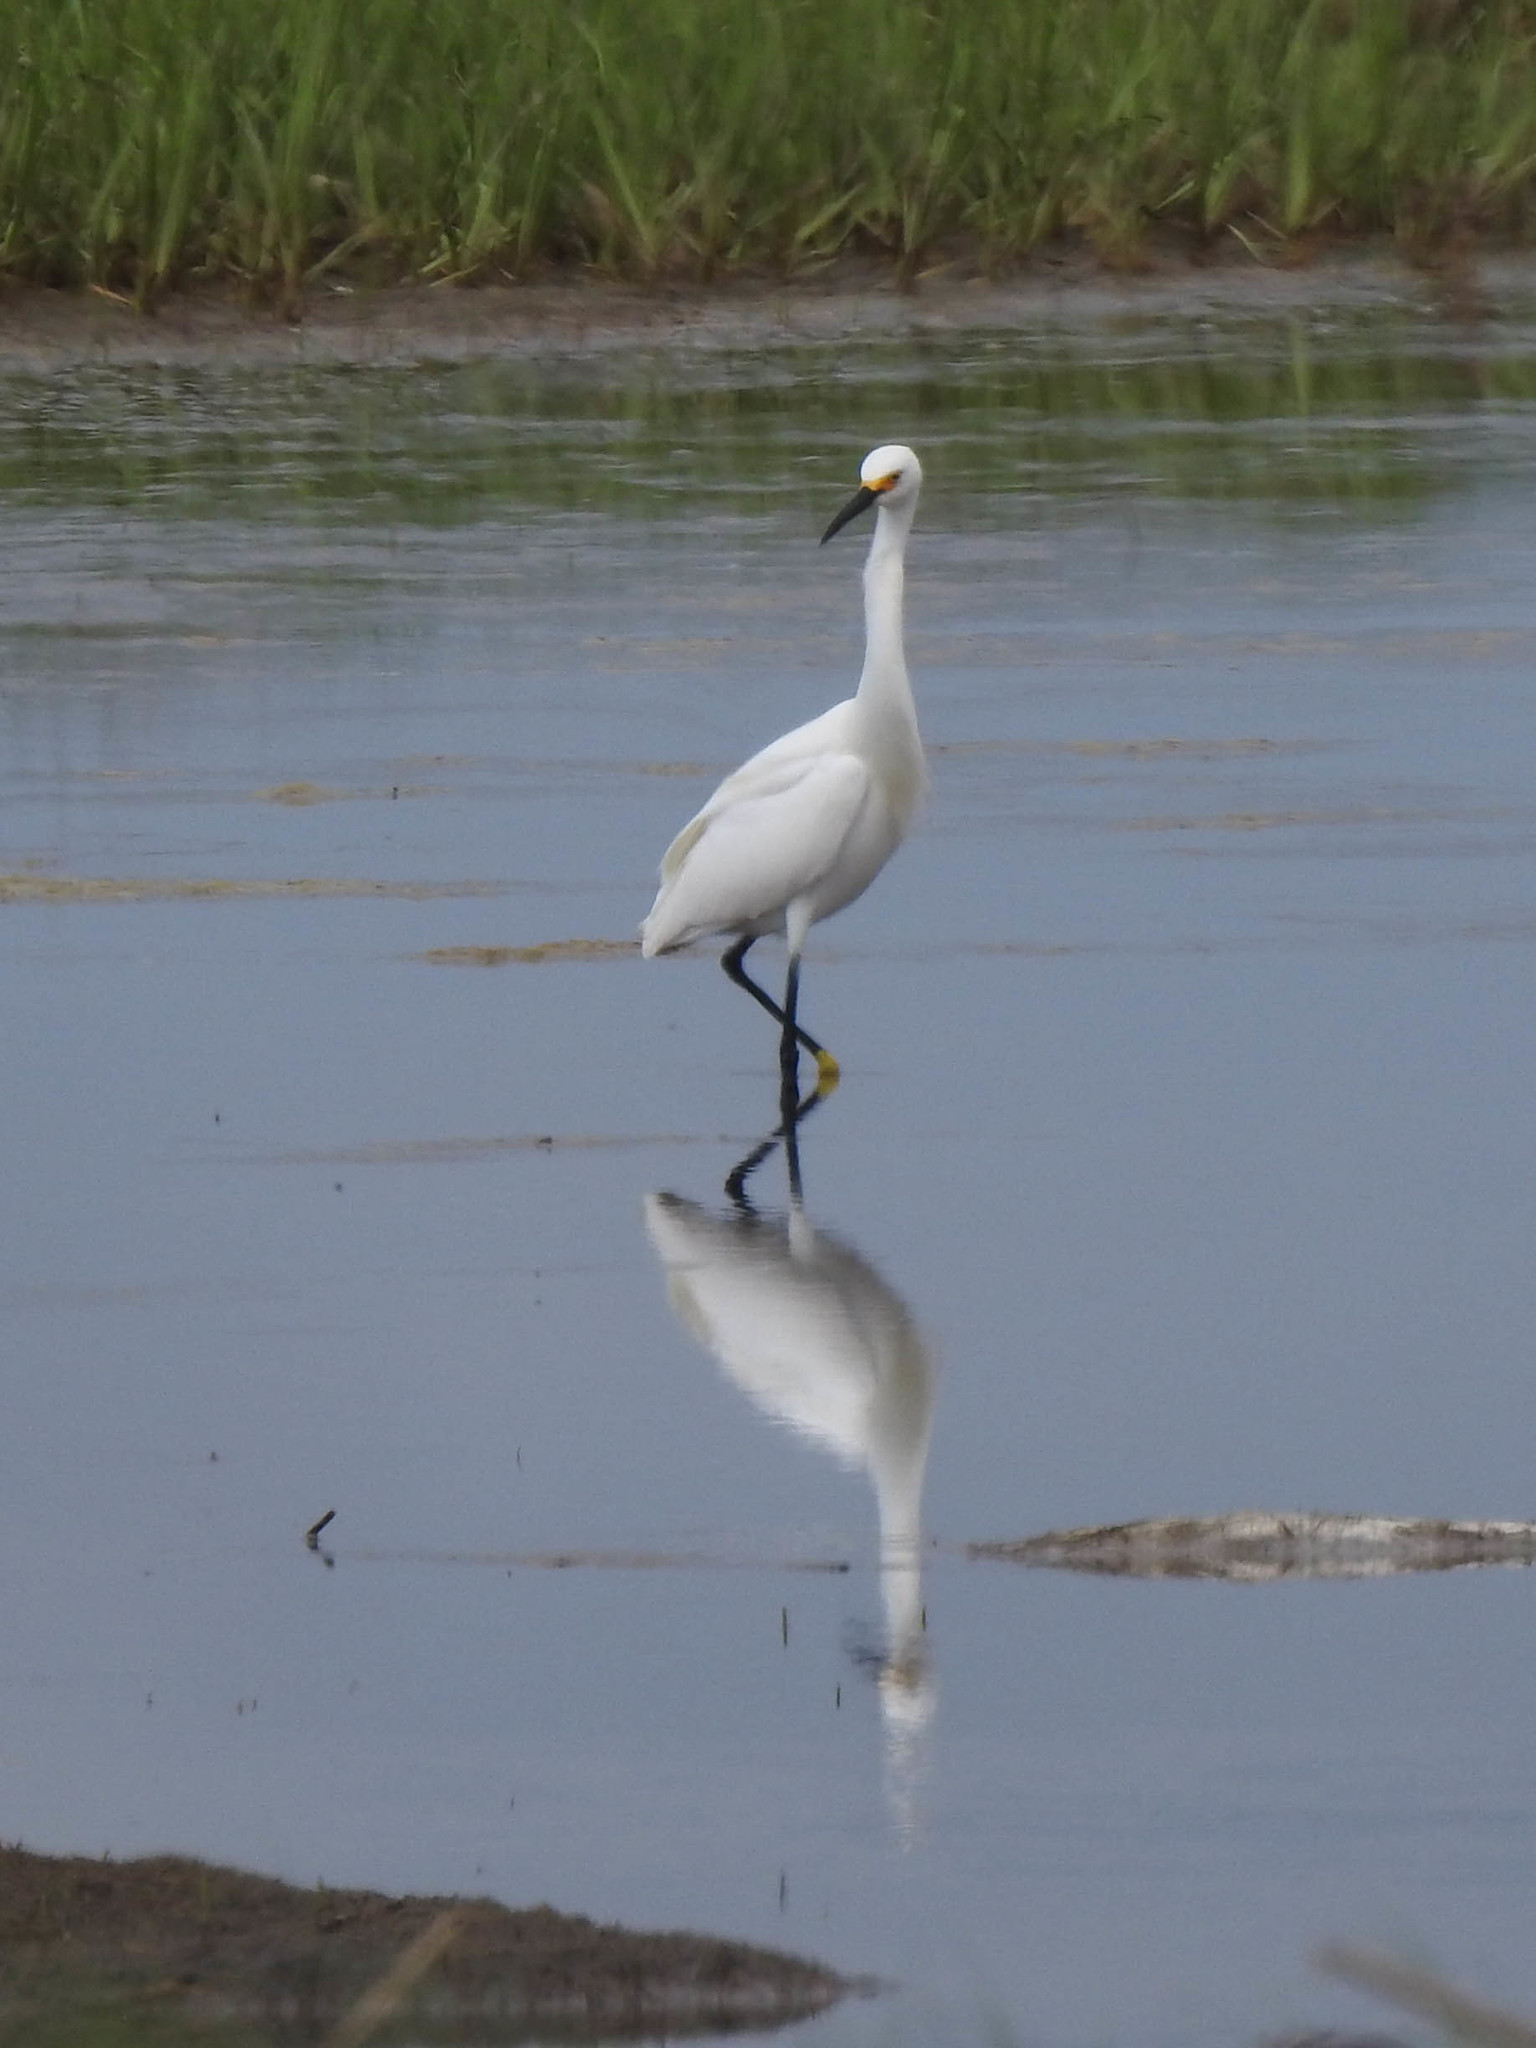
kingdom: Animalia
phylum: Chordata
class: Aves
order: Pelecaniformes
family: Ardeidae
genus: Egretta
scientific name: Egretta thula
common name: Snowy egret
